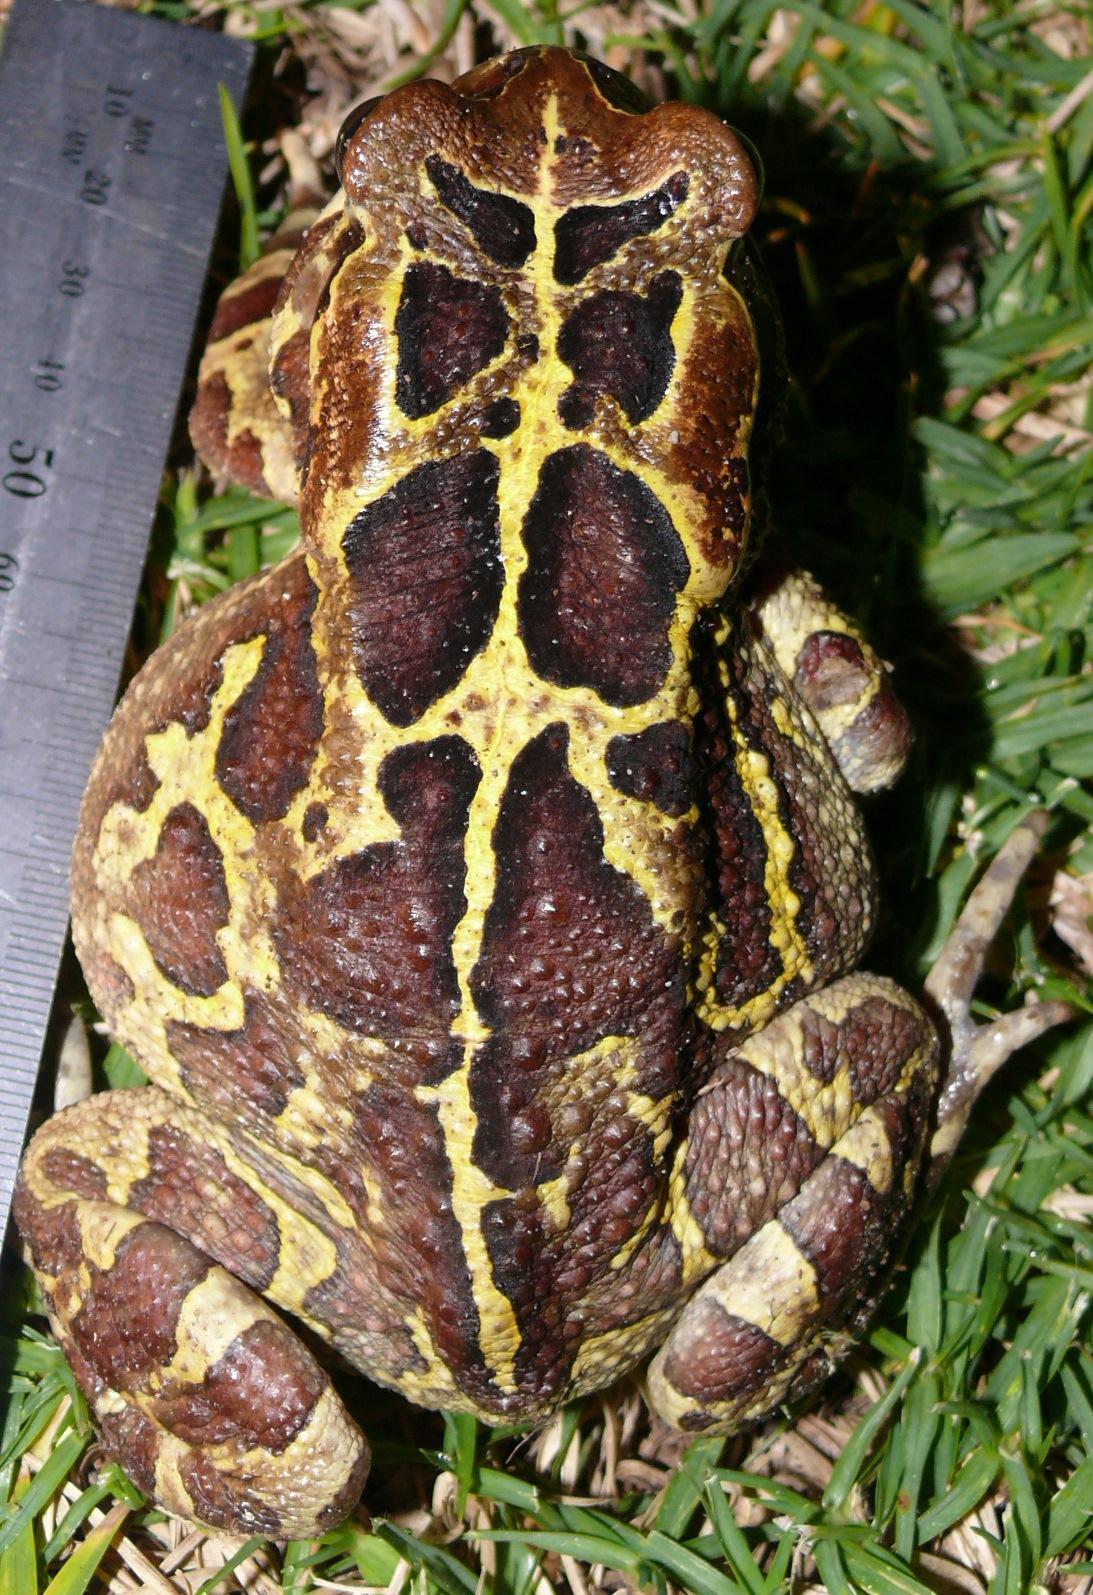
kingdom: Animalia
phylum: Chordata
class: Amphibia
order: Anura
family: Bufonidae
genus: Sclerophrys
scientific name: Sclerophrys pantherina
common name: Panther toad
